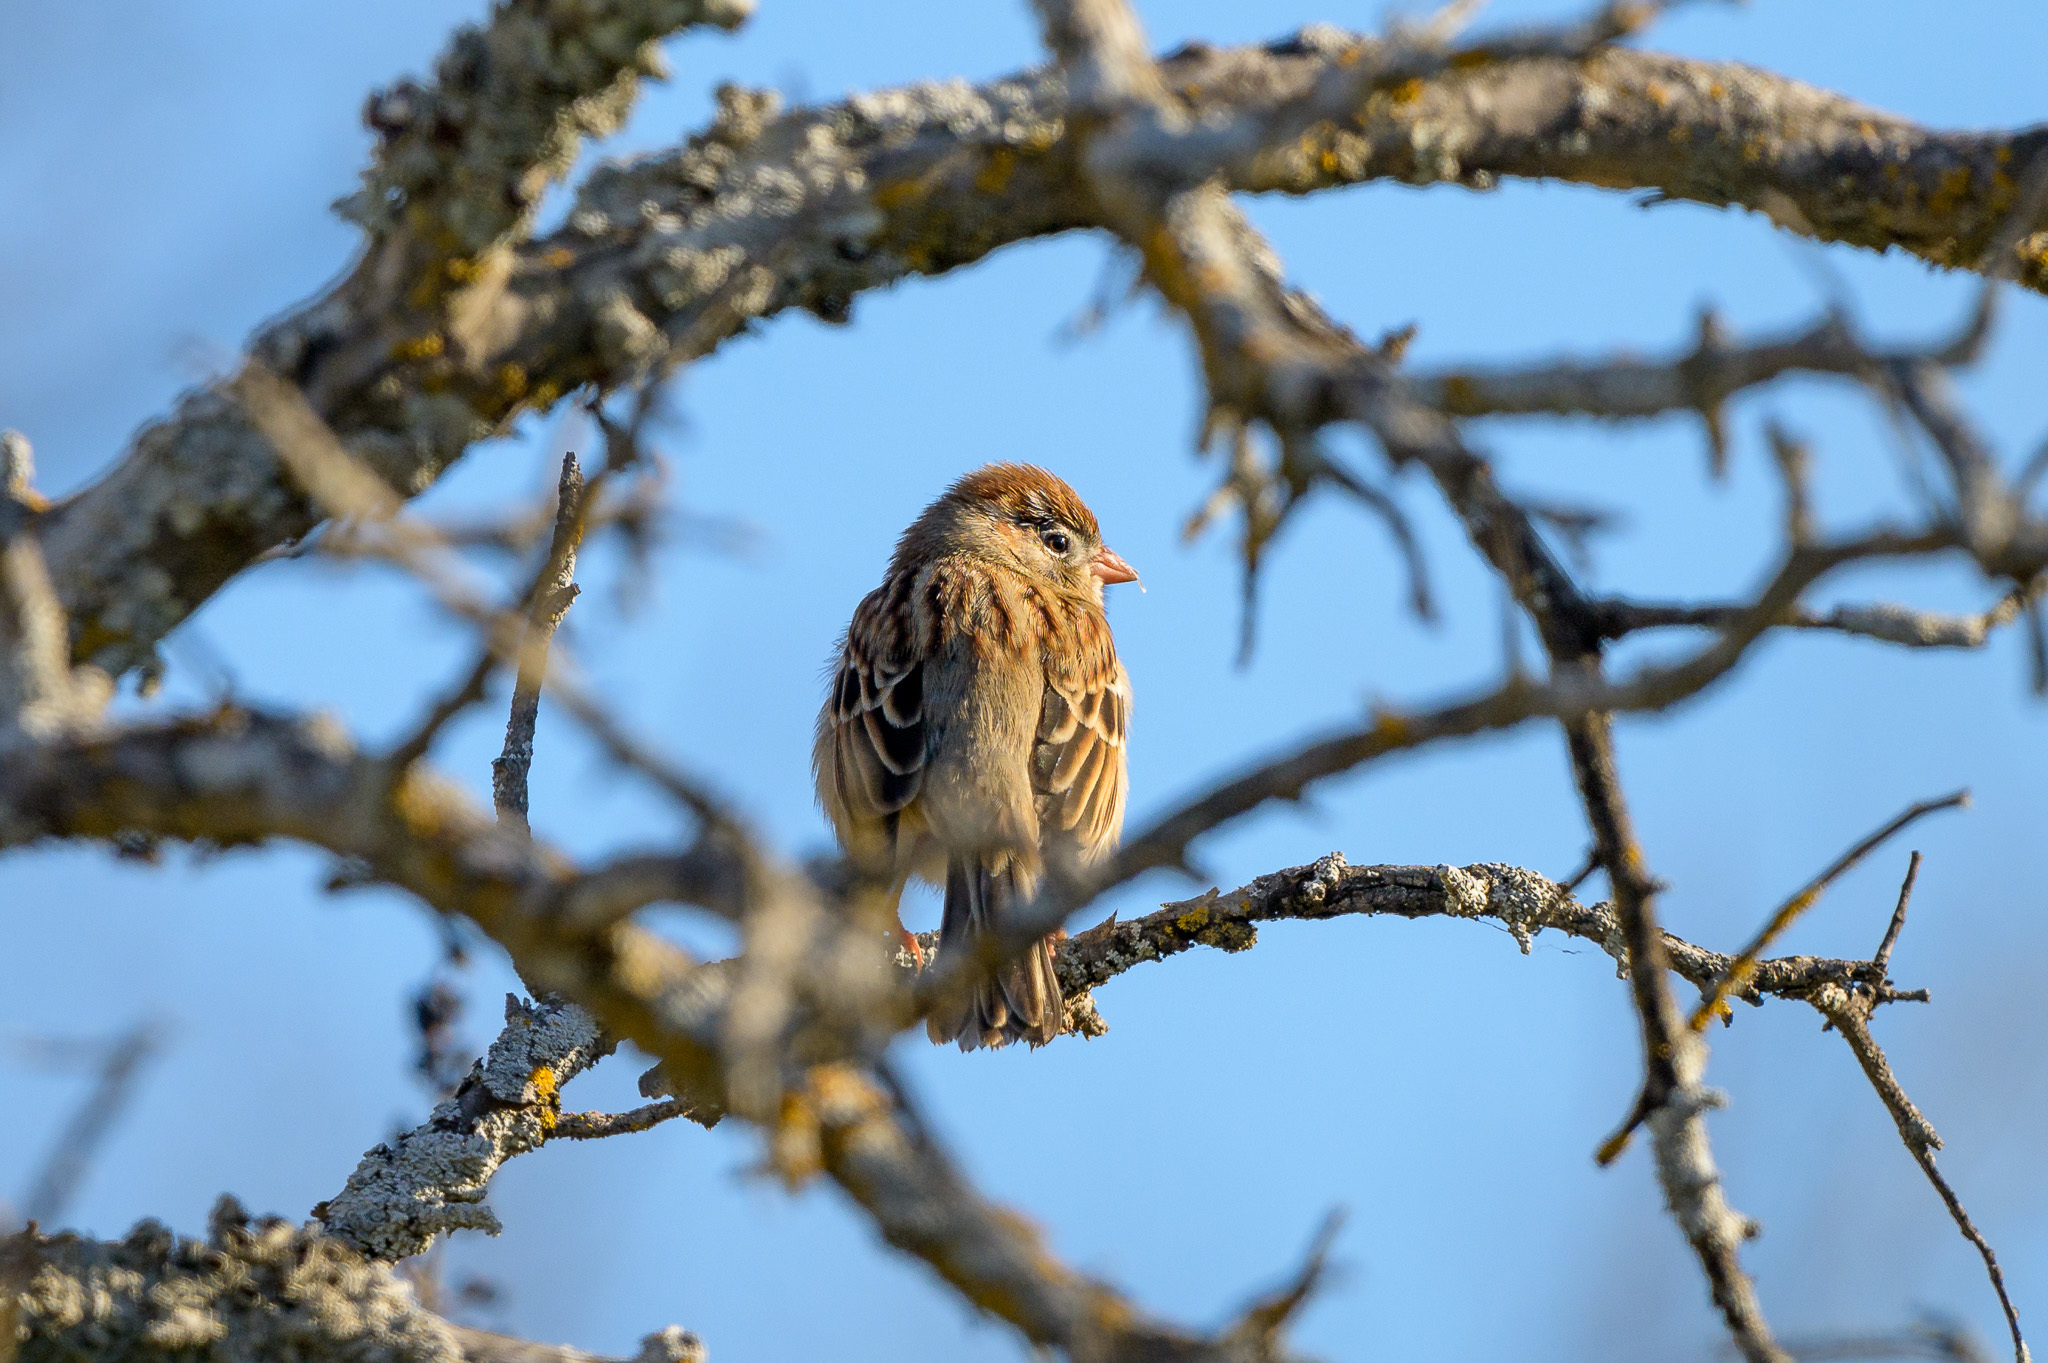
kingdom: Animalia
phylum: Chordata
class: Aves
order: Passeriformes
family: Passerellidae
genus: Spizella
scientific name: Spizella pusilla
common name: Field sparrow
